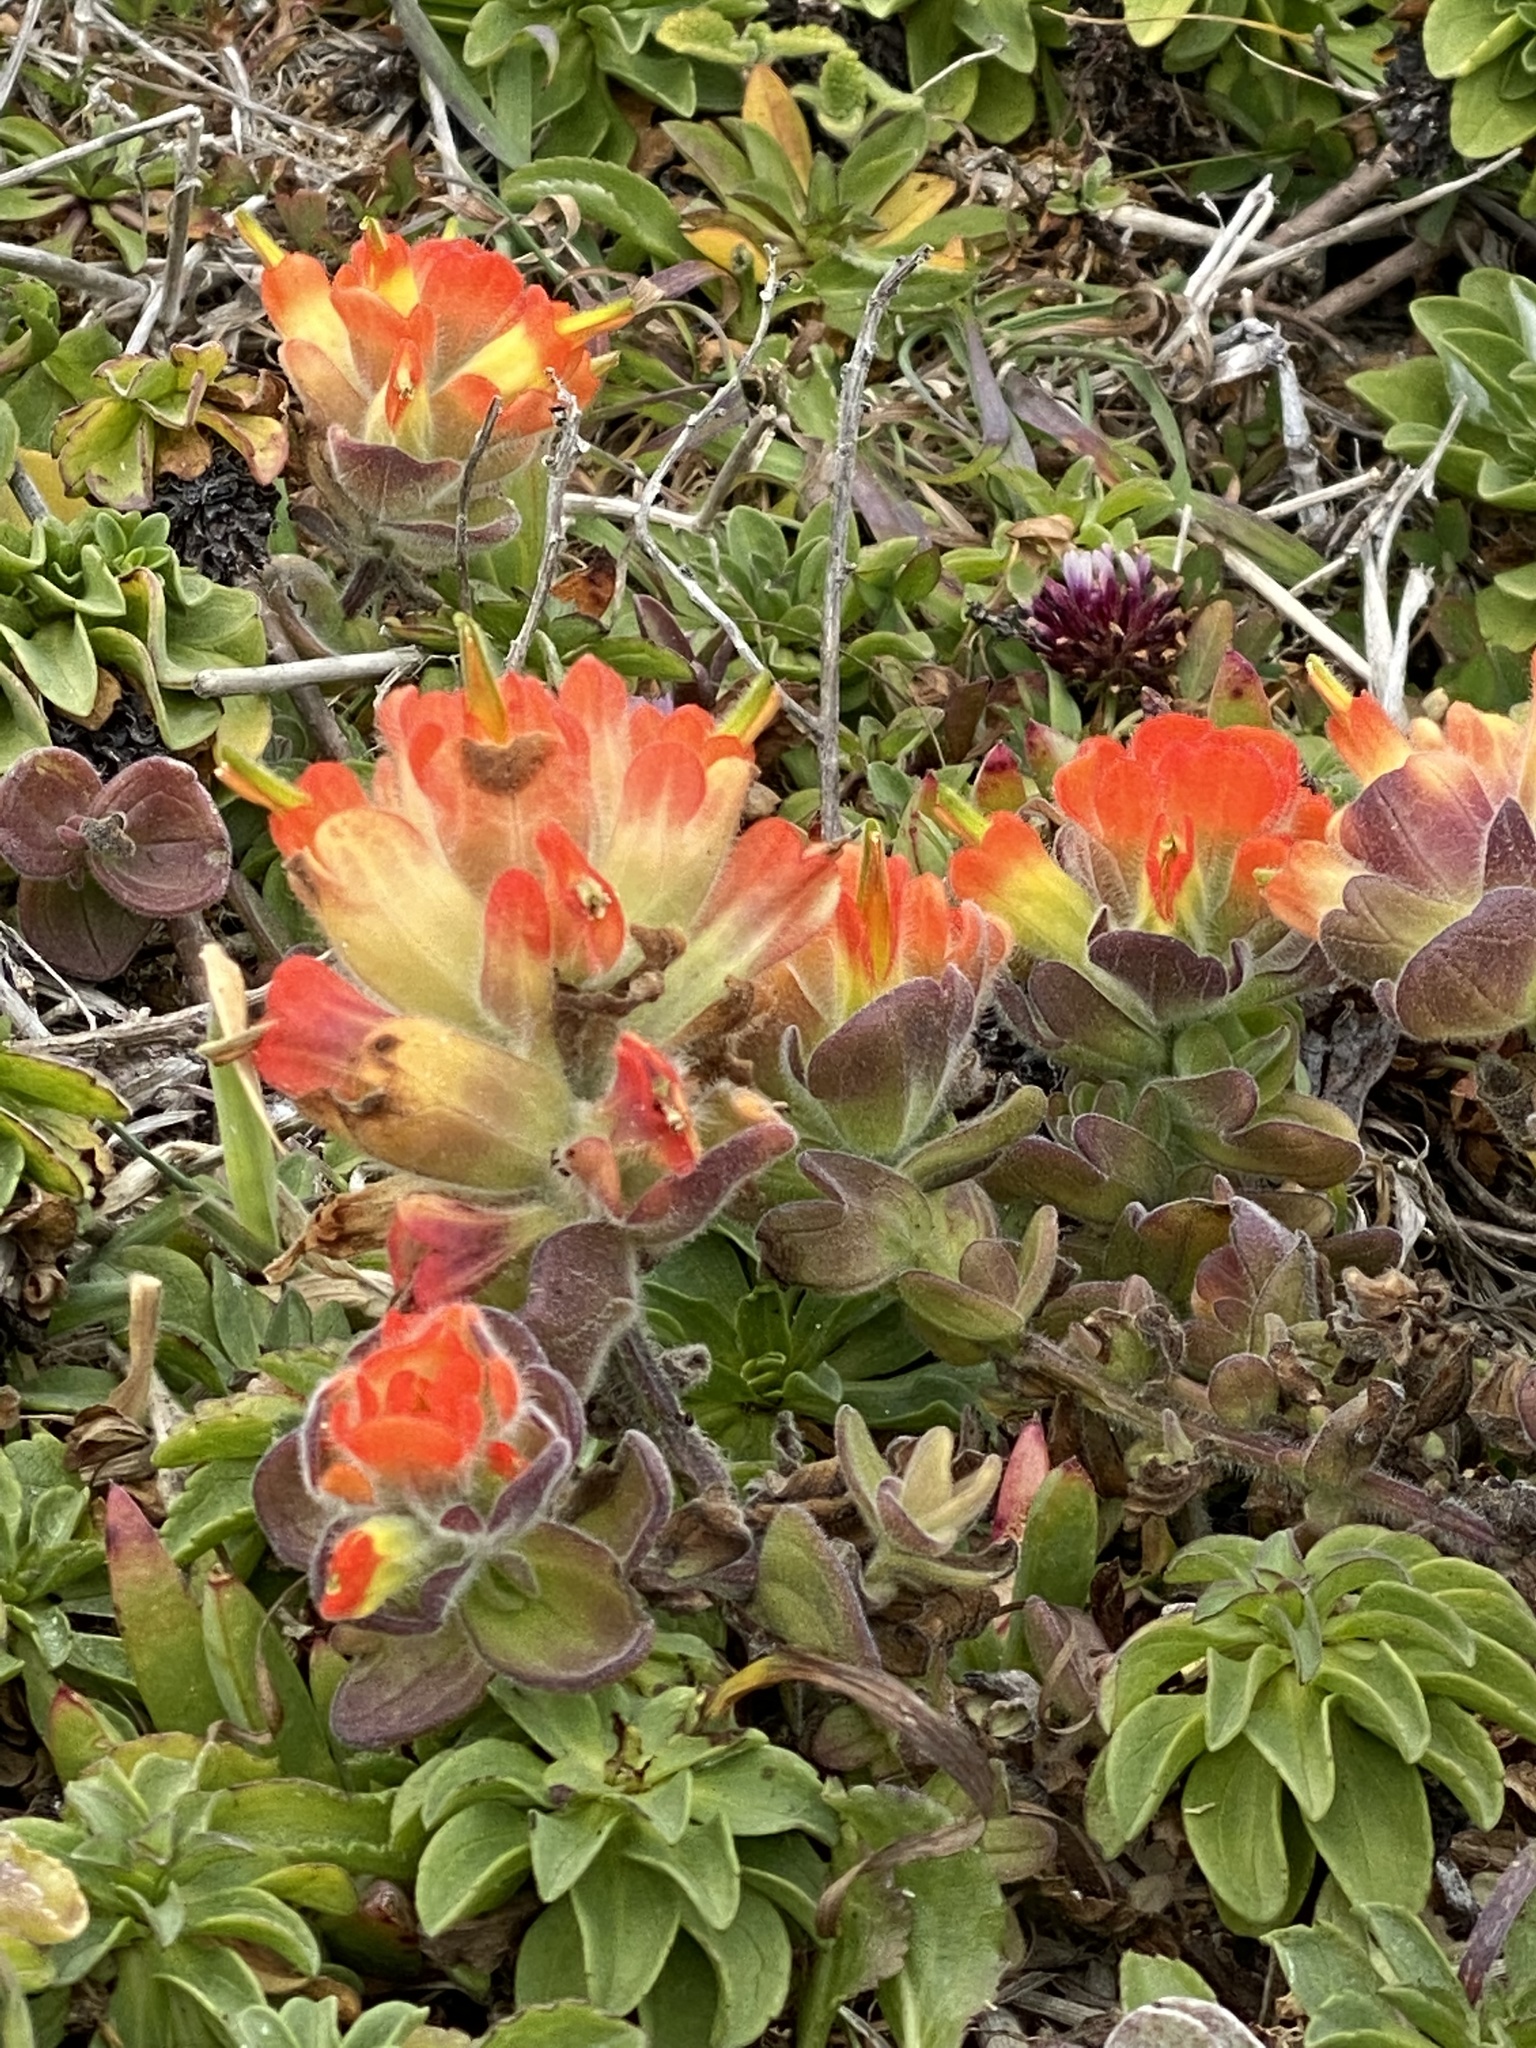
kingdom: Plantae
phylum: Tracheophyta
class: Magnoliopsida
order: Lamiales
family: Orobanchaceae
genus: Castilleja
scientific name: Castilleja mendocinensis
